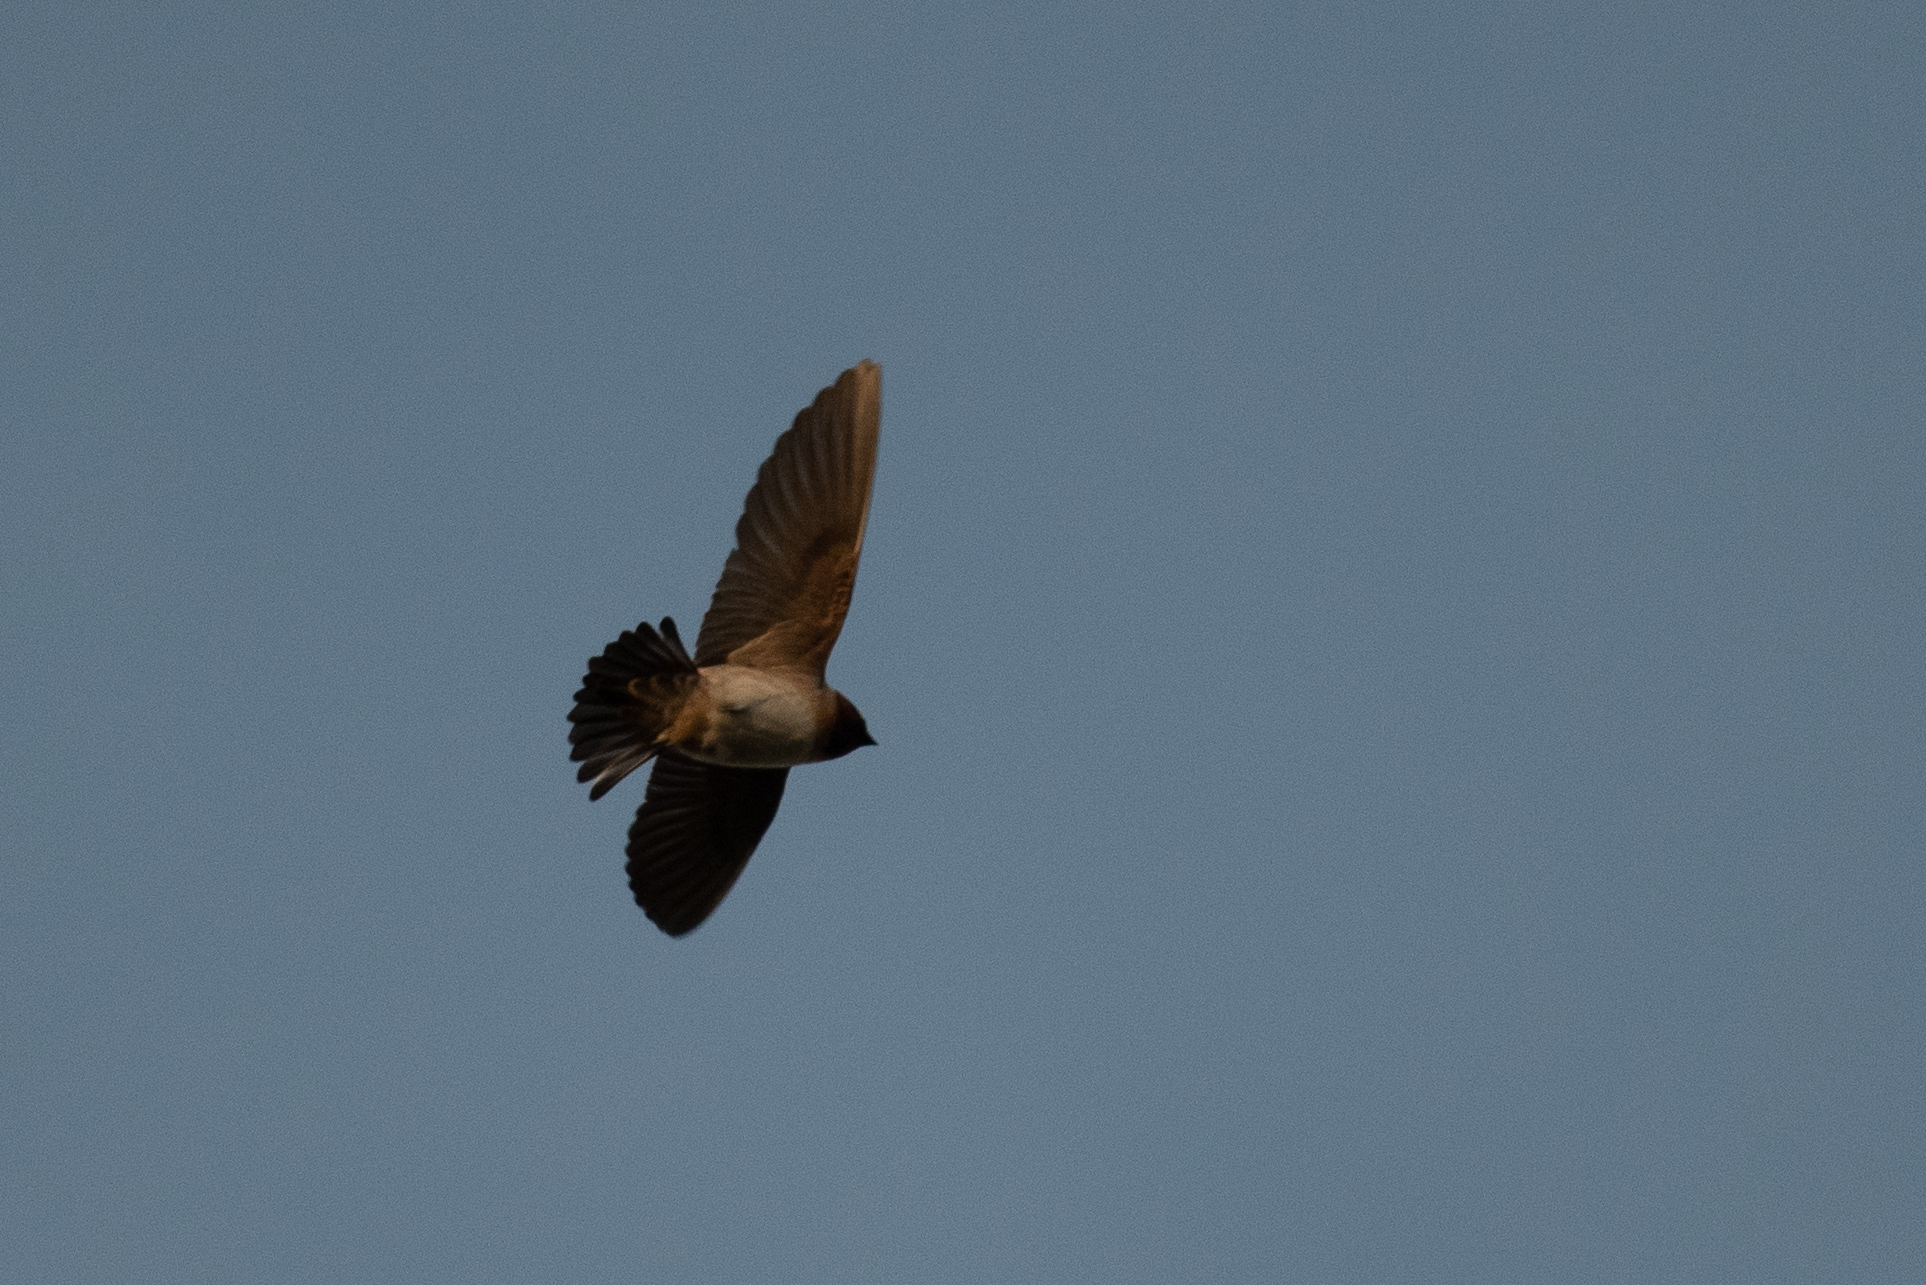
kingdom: Animalia
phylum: Chordata
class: Aves
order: Passeriformes
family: Hirundinidae
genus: Petrochelidon
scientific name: Petrochelidon pyrrhonota
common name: American cliff swallow
